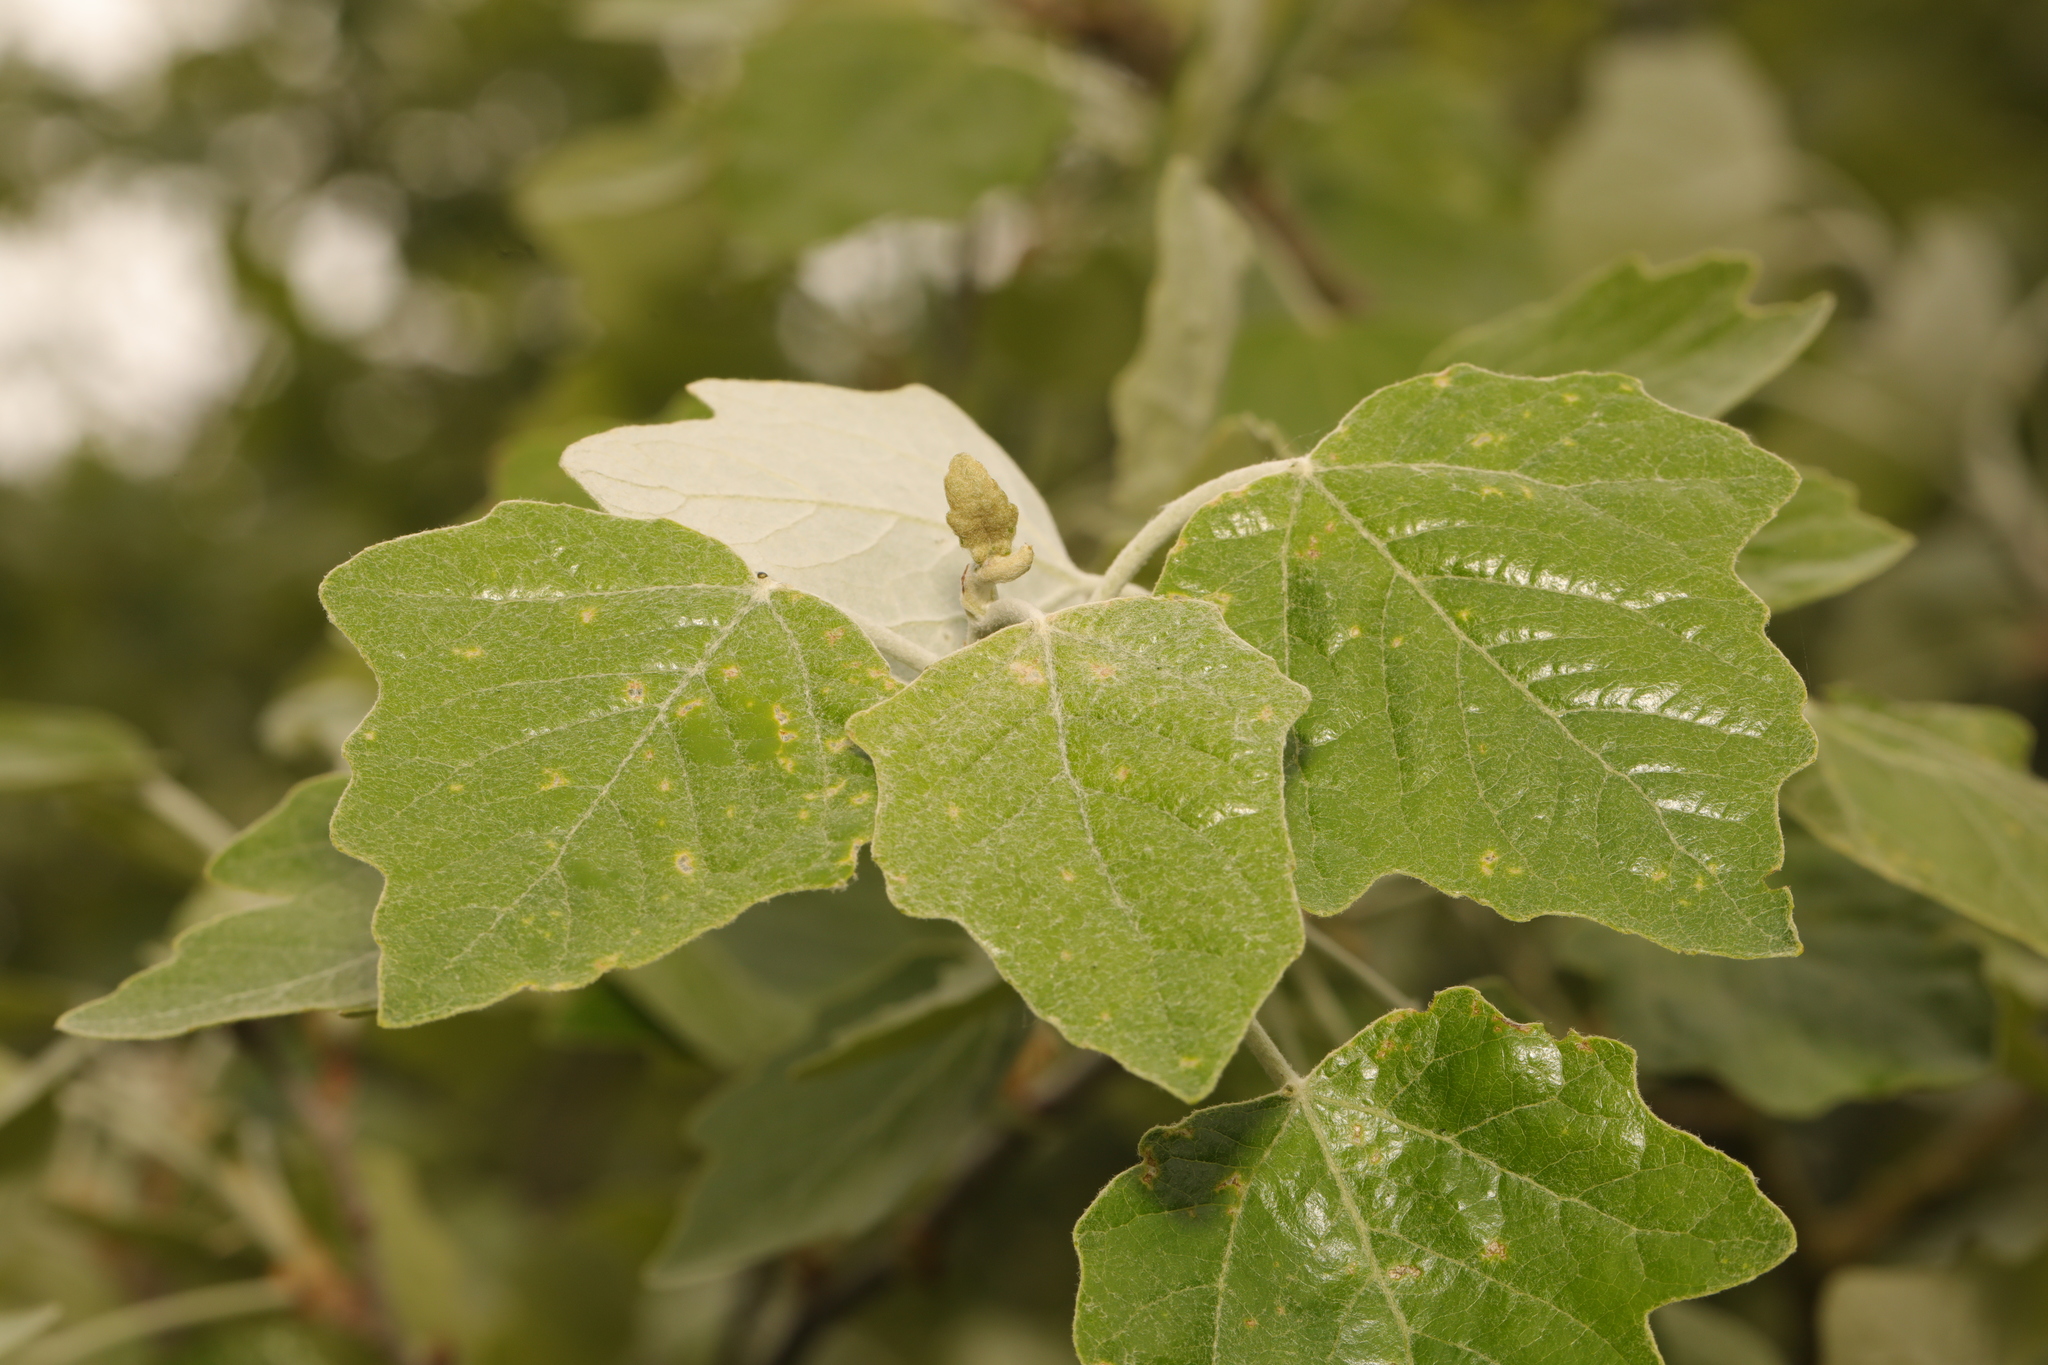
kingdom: Plantae
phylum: Tracheophyta
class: Magnoliopsida
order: Malpighiales
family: Salicaceae
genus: Populus
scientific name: Populus alba
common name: White poplar
